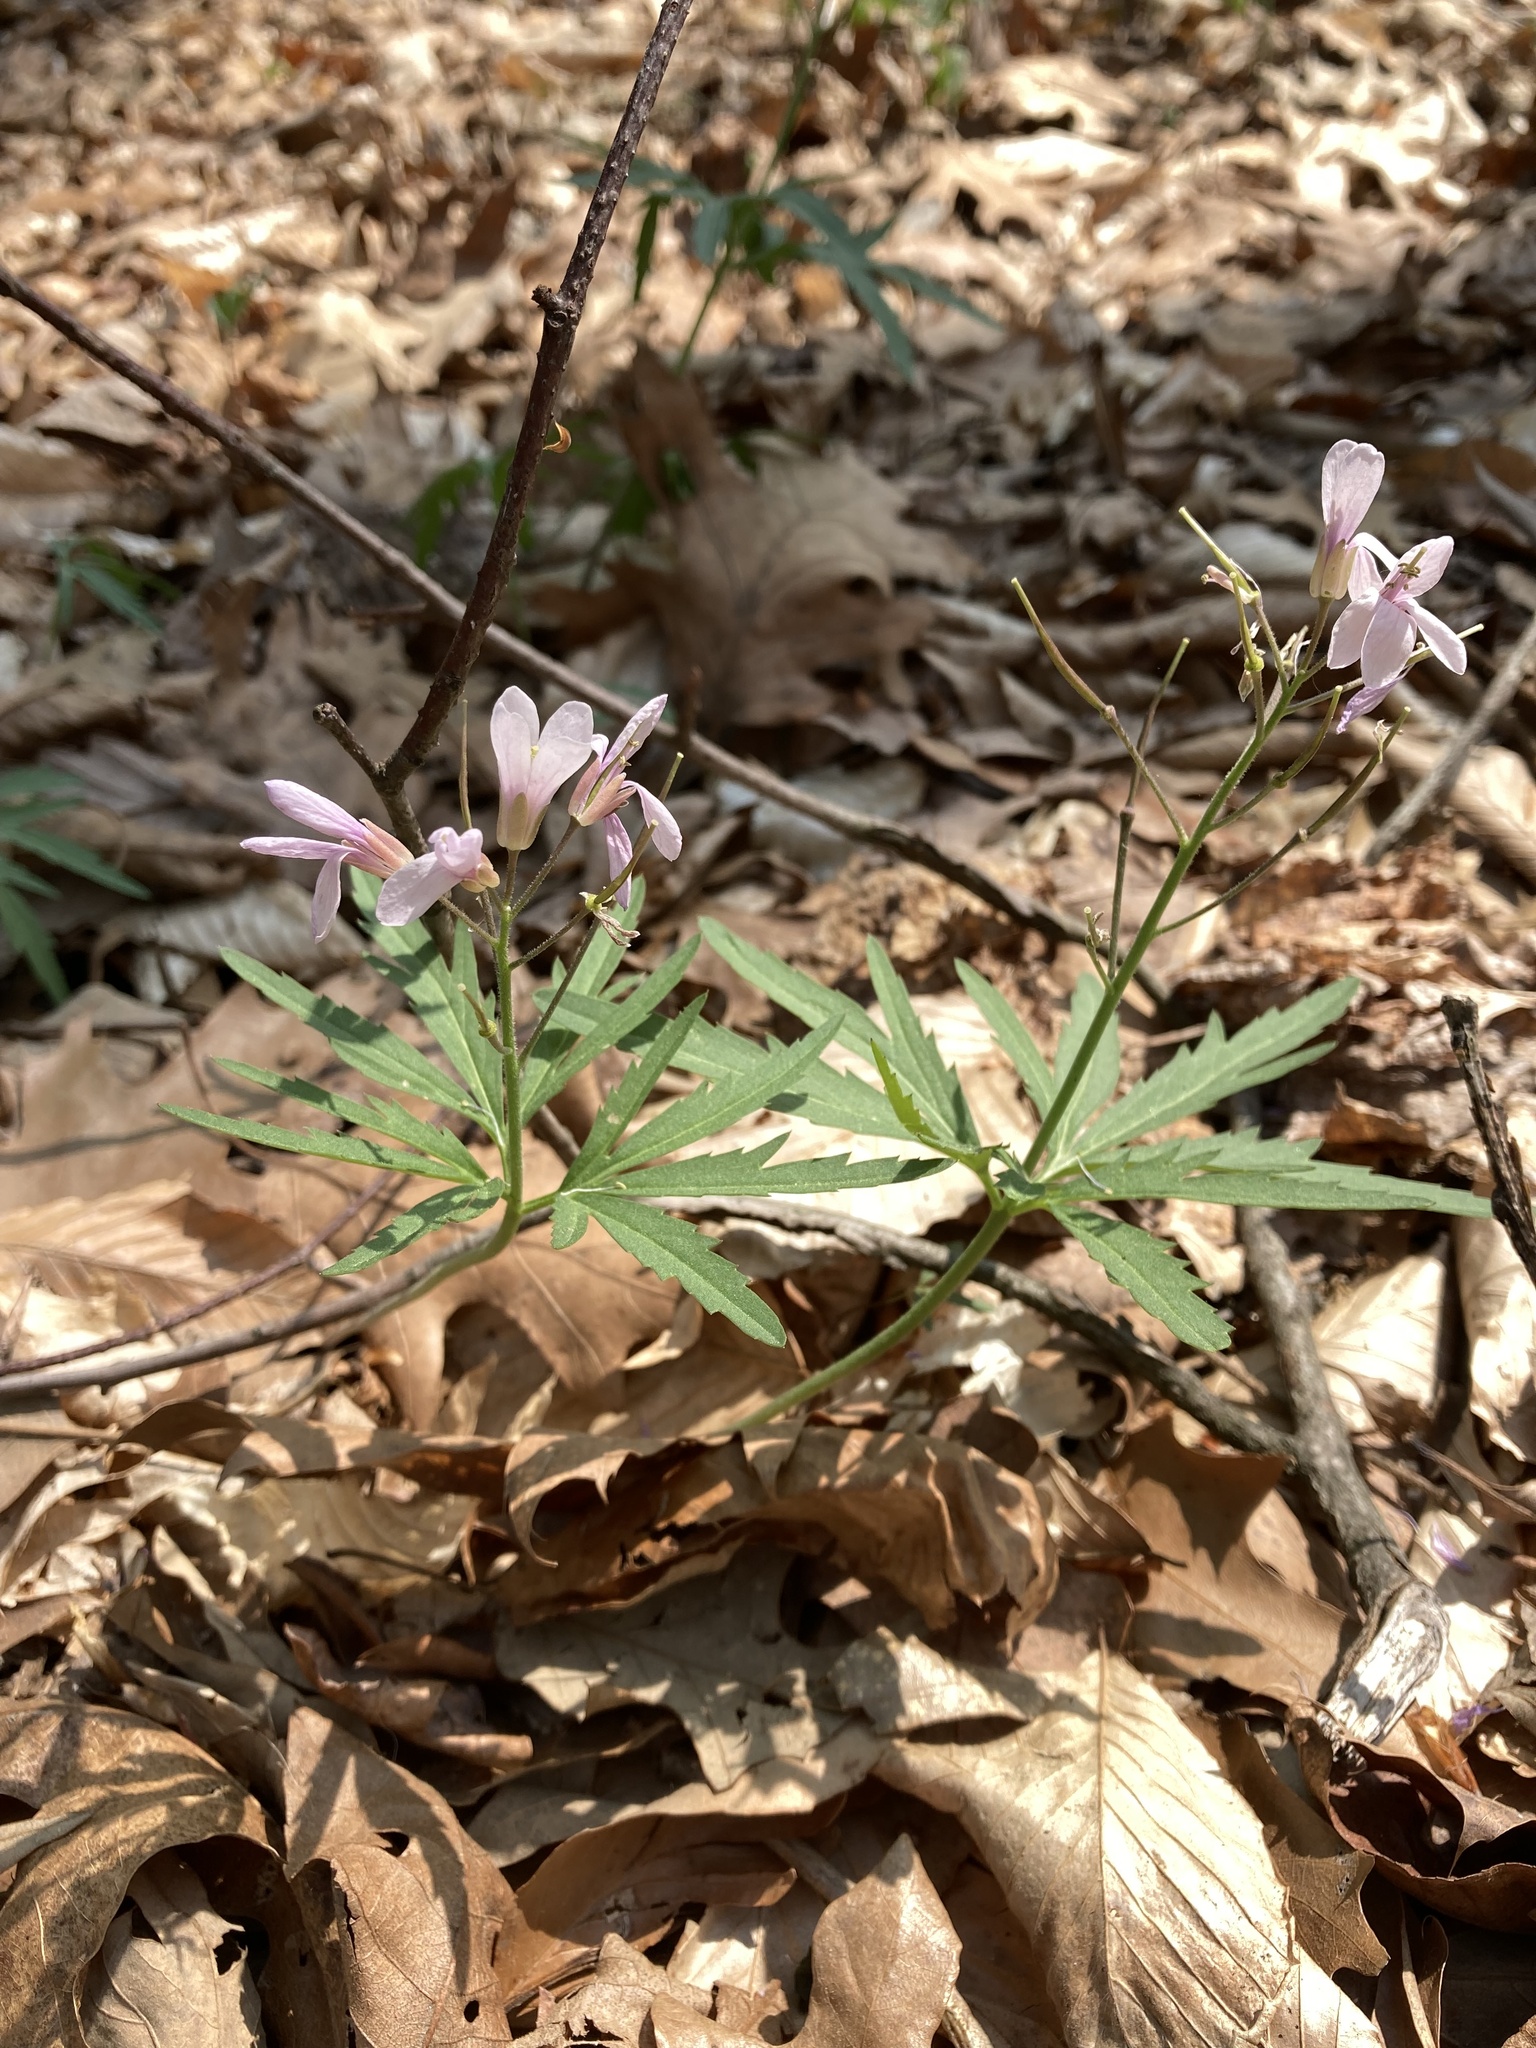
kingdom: Plantae
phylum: Tracheophyta
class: Magnoliopsida
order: Brassicales
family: Brassicaceae
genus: Cardamine
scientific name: Cardamine concatenata
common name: Cut-leaf toothcup
